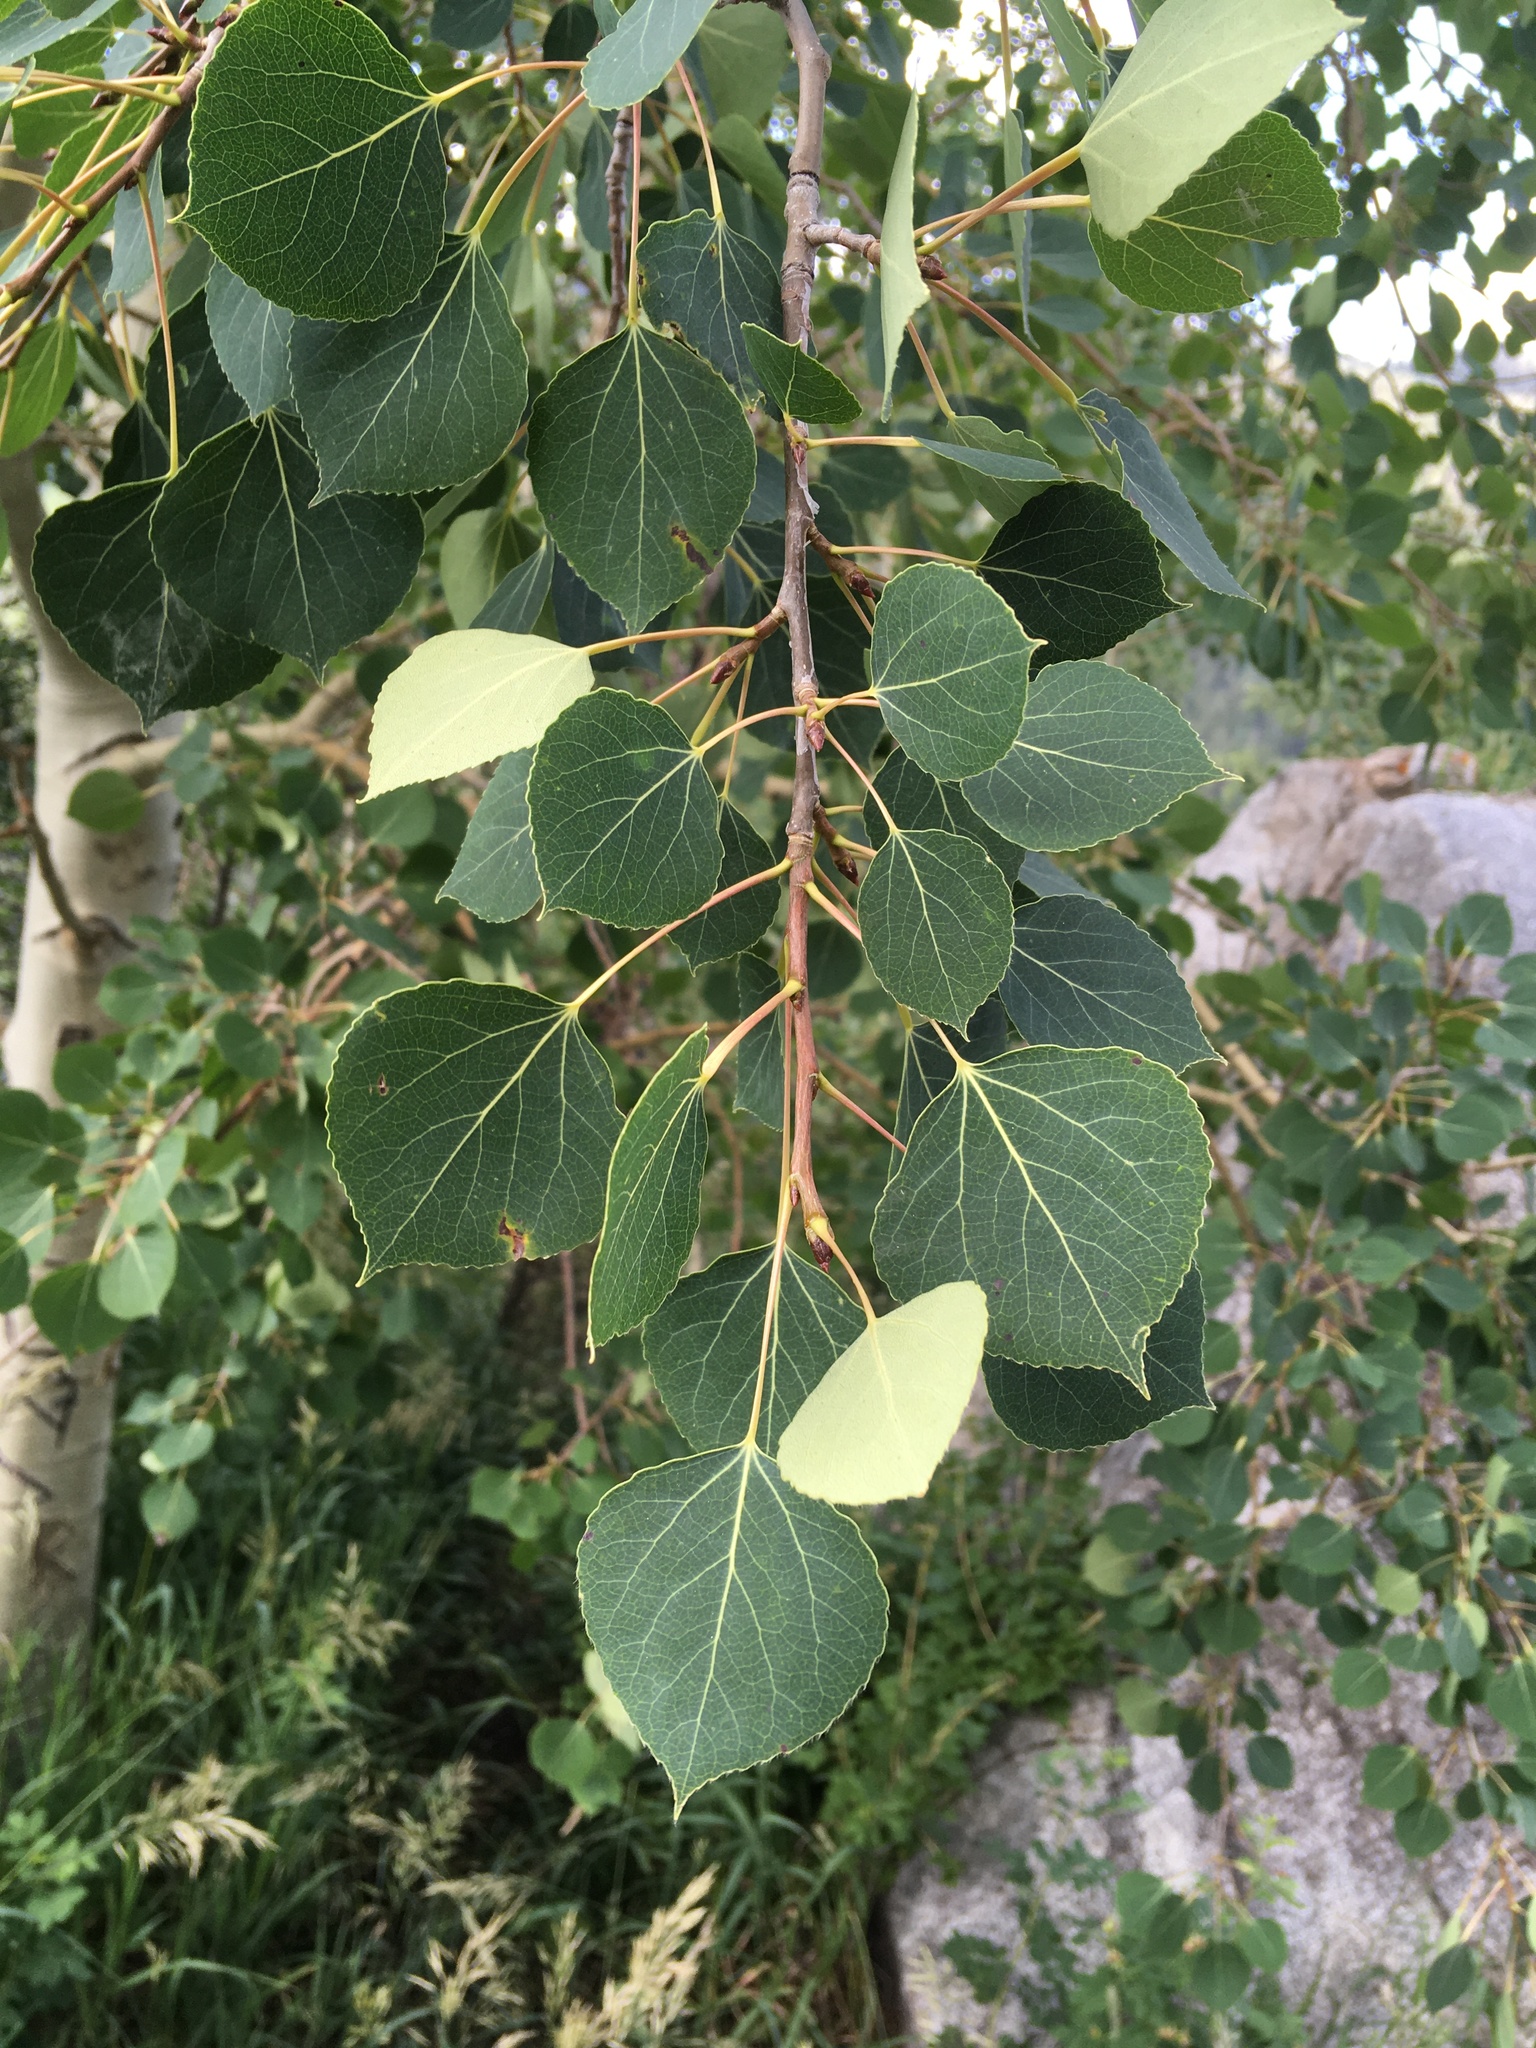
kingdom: Plantae
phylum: Tracheophyta
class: Magnoliopsida
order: Malpighiales
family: Salicaceae
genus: Populus
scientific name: Populus tremuloides
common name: Quaking aspen
